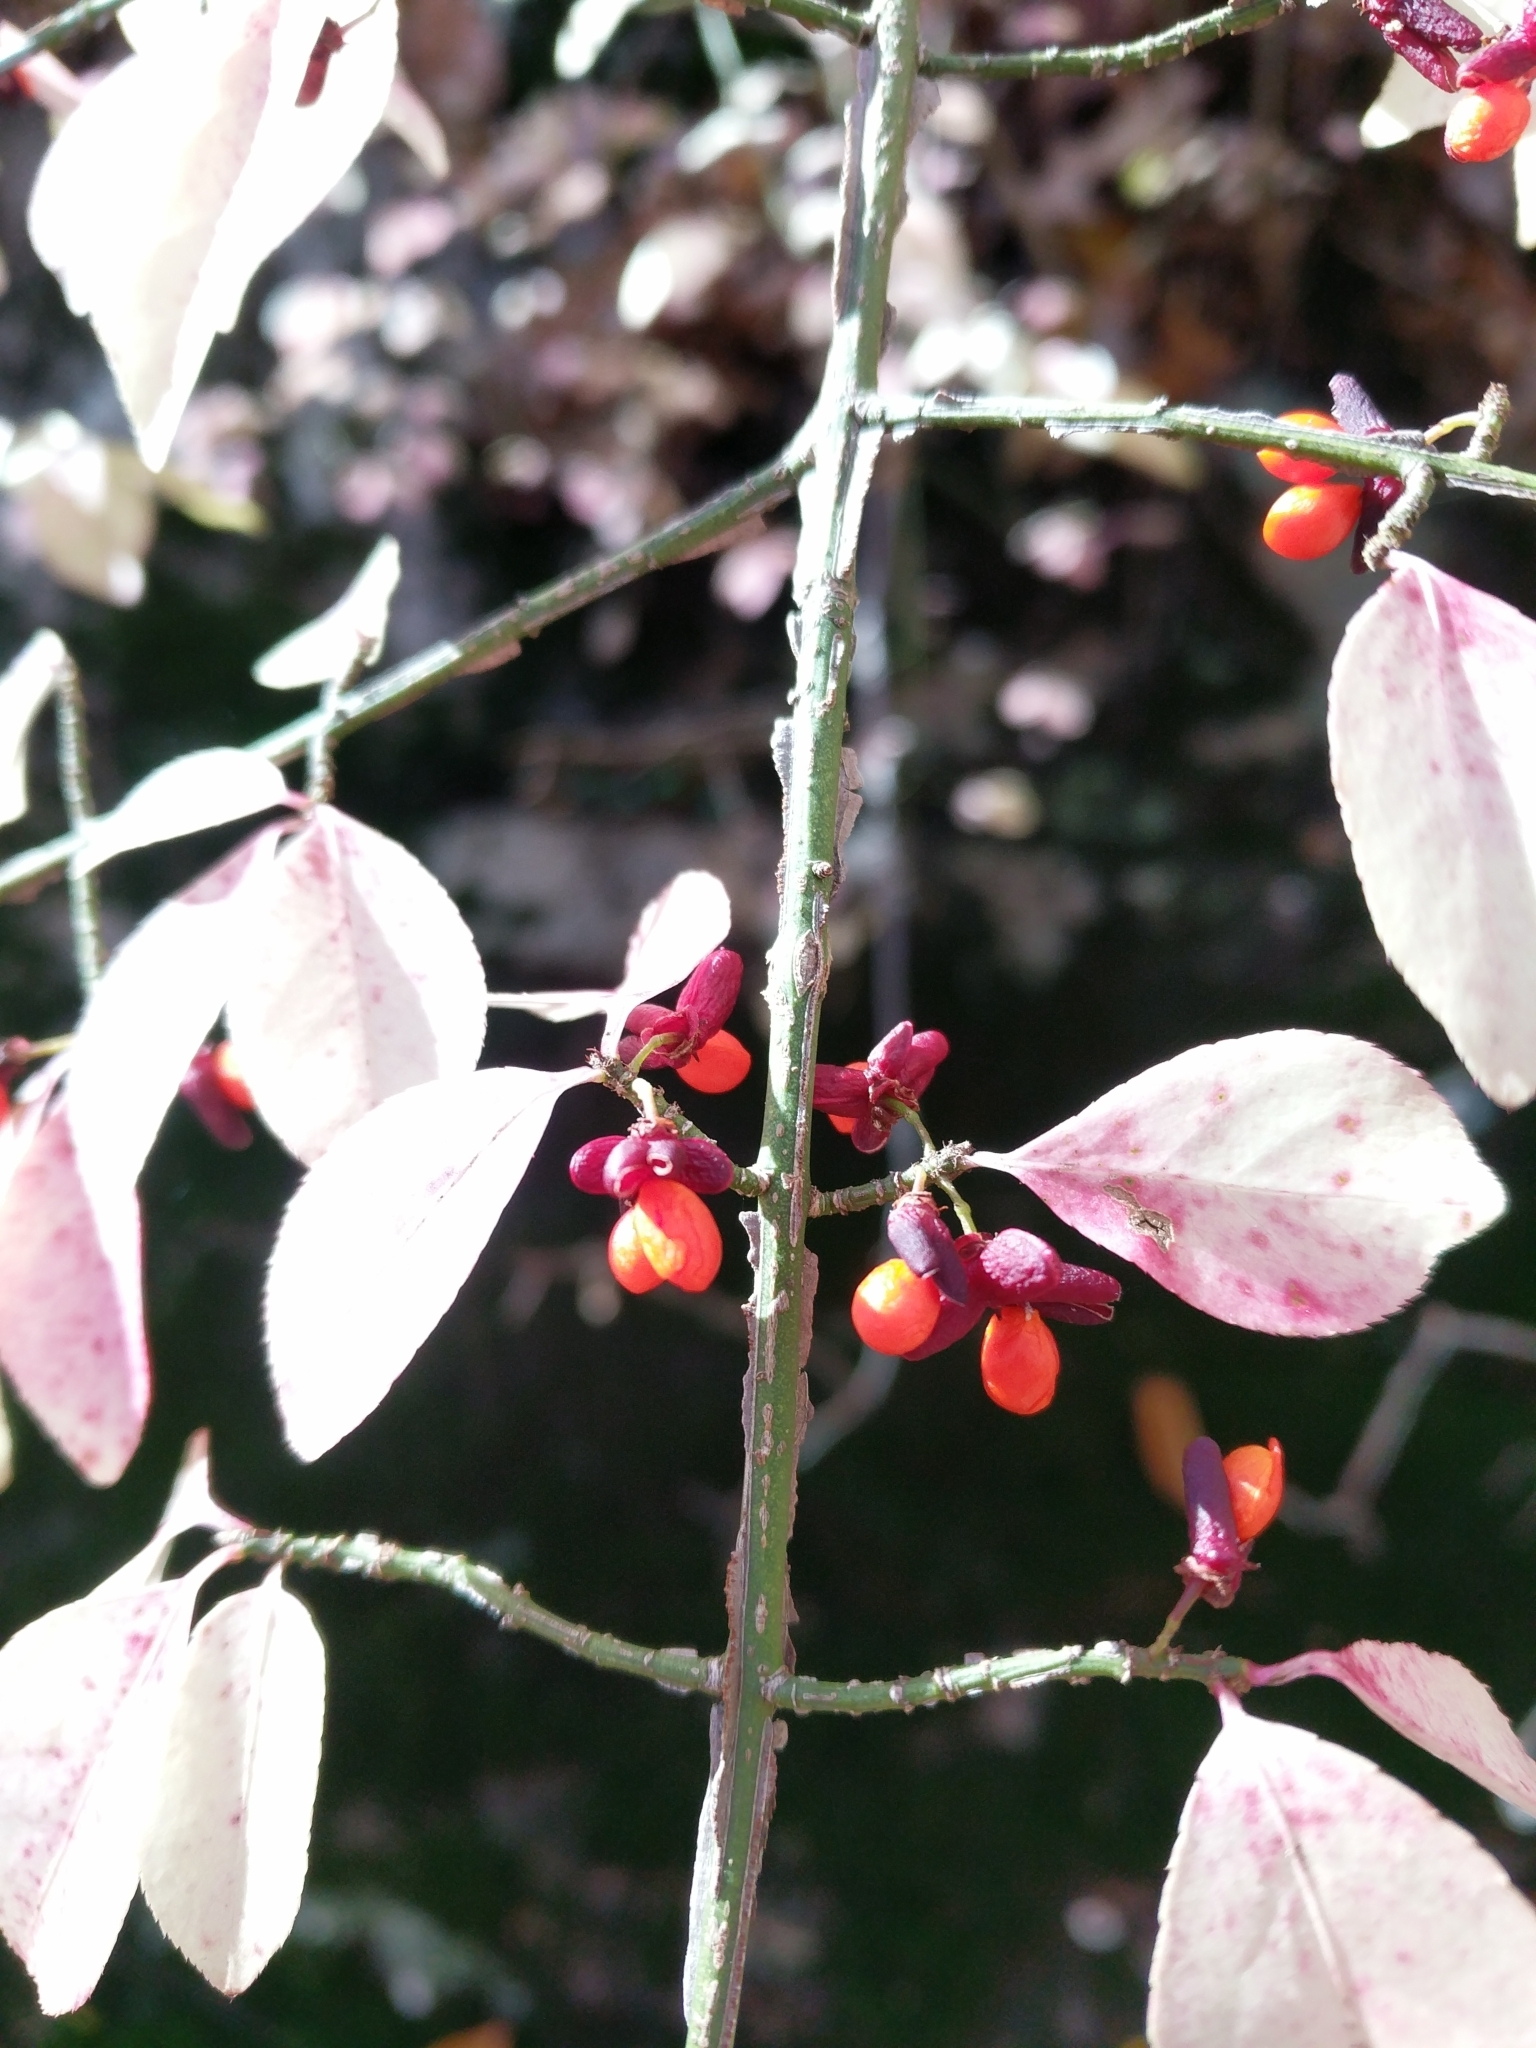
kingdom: Plantae
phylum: Tracheophyta
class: Magnoliopsida
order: Celastrales
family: Celastraceae
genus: Euonymus
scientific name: Euonymus alatus
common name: Winged euonymus
